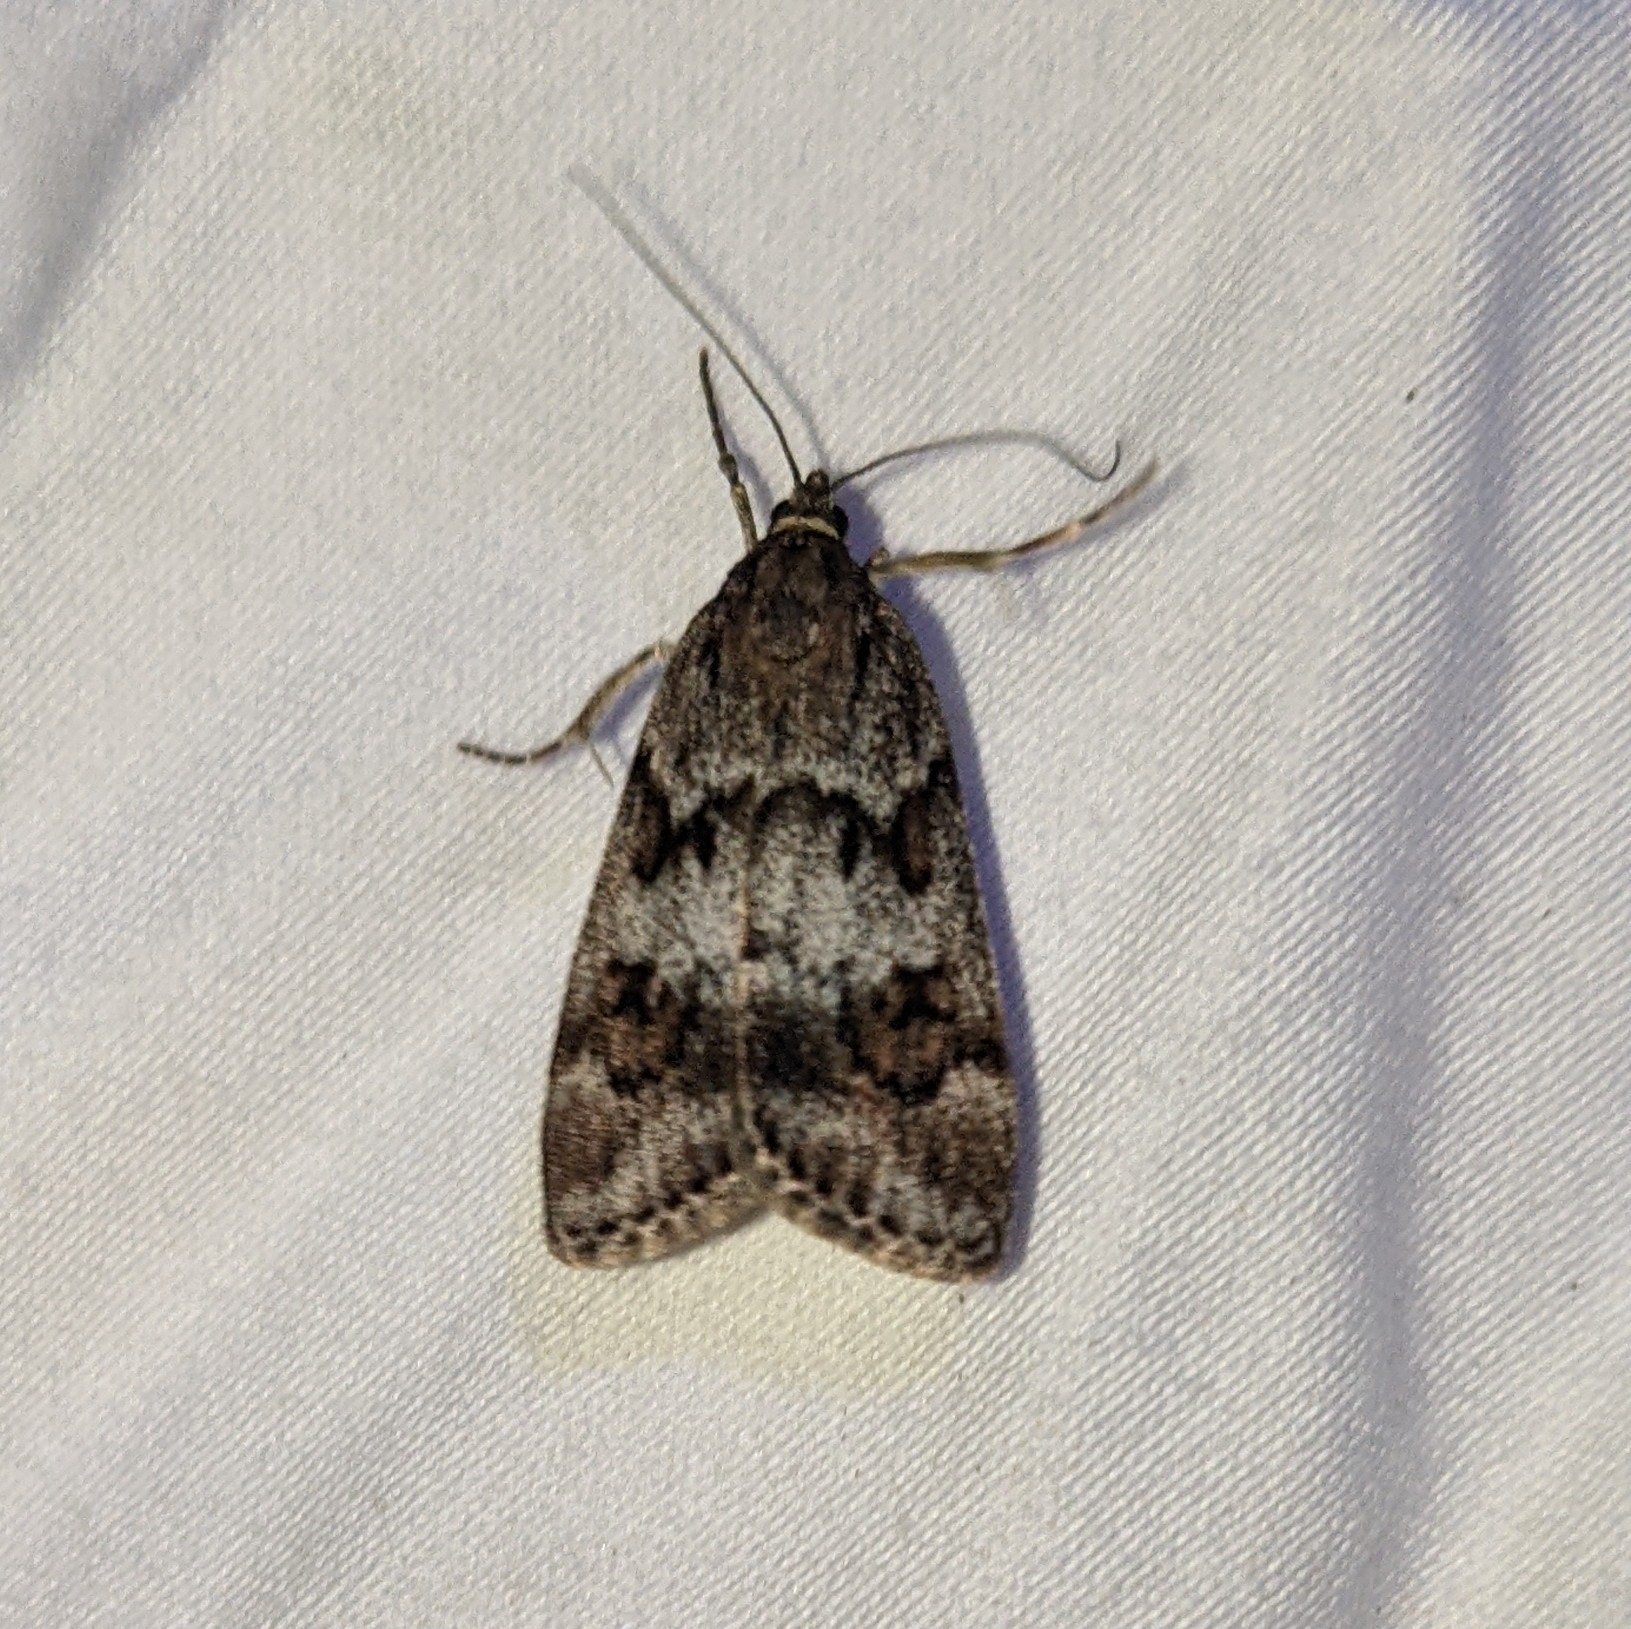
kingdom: Animalia
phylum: Arthropoda
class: Insecta
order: Lepidoptera
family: Crambidae
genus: Gesneria
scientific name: Gesneria centuriella
